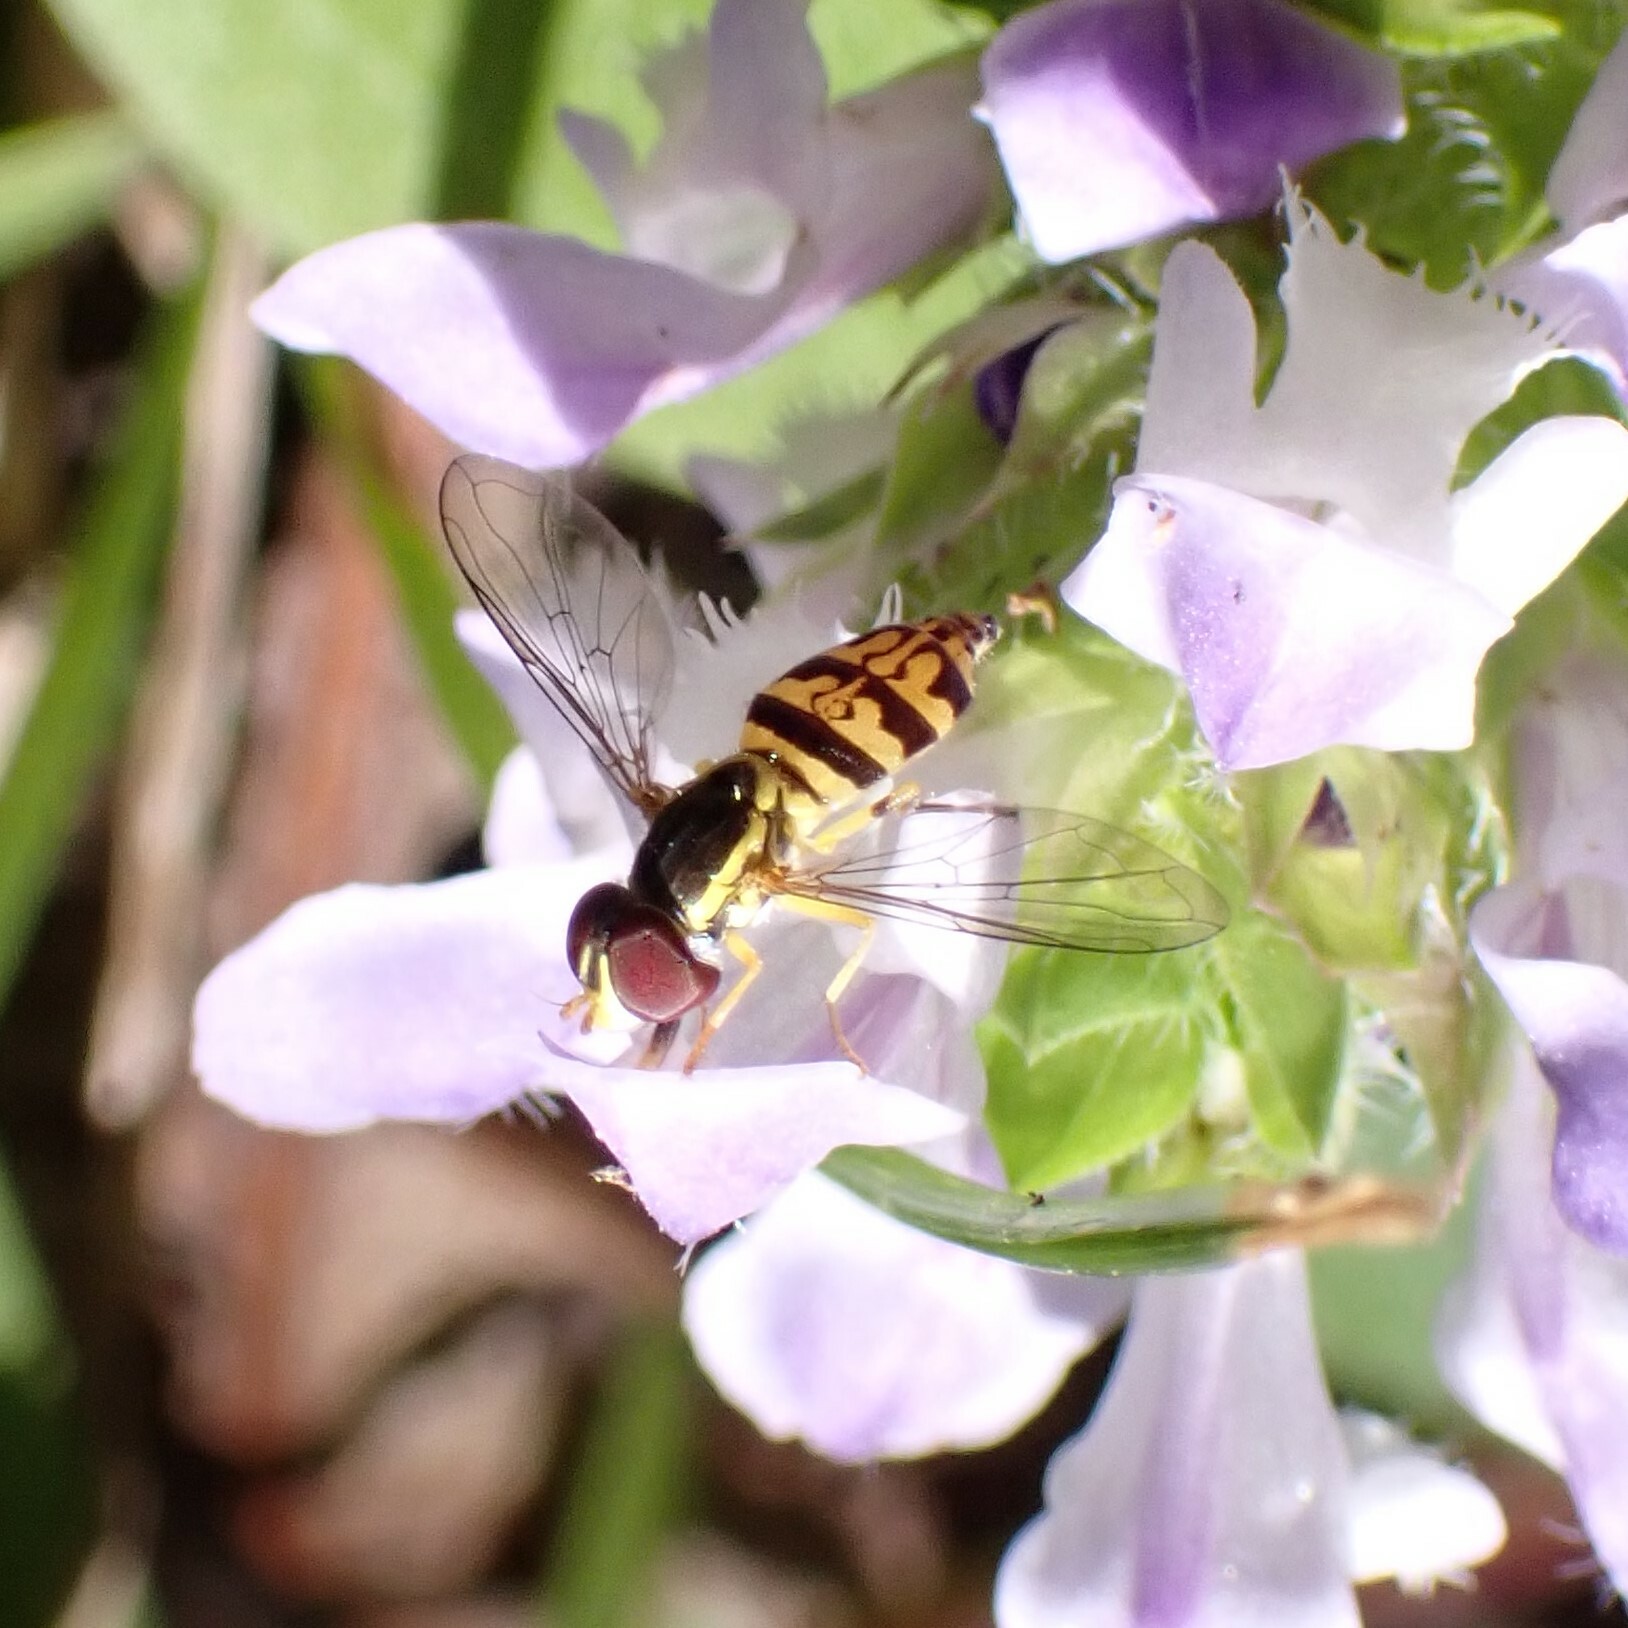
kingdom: Animalia
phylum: Arthropoda
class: Insecta
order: Diptera
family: Syrphidae
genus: Toxomerus
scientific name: Toxomerus geminatus
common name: Eastern calligrapher
